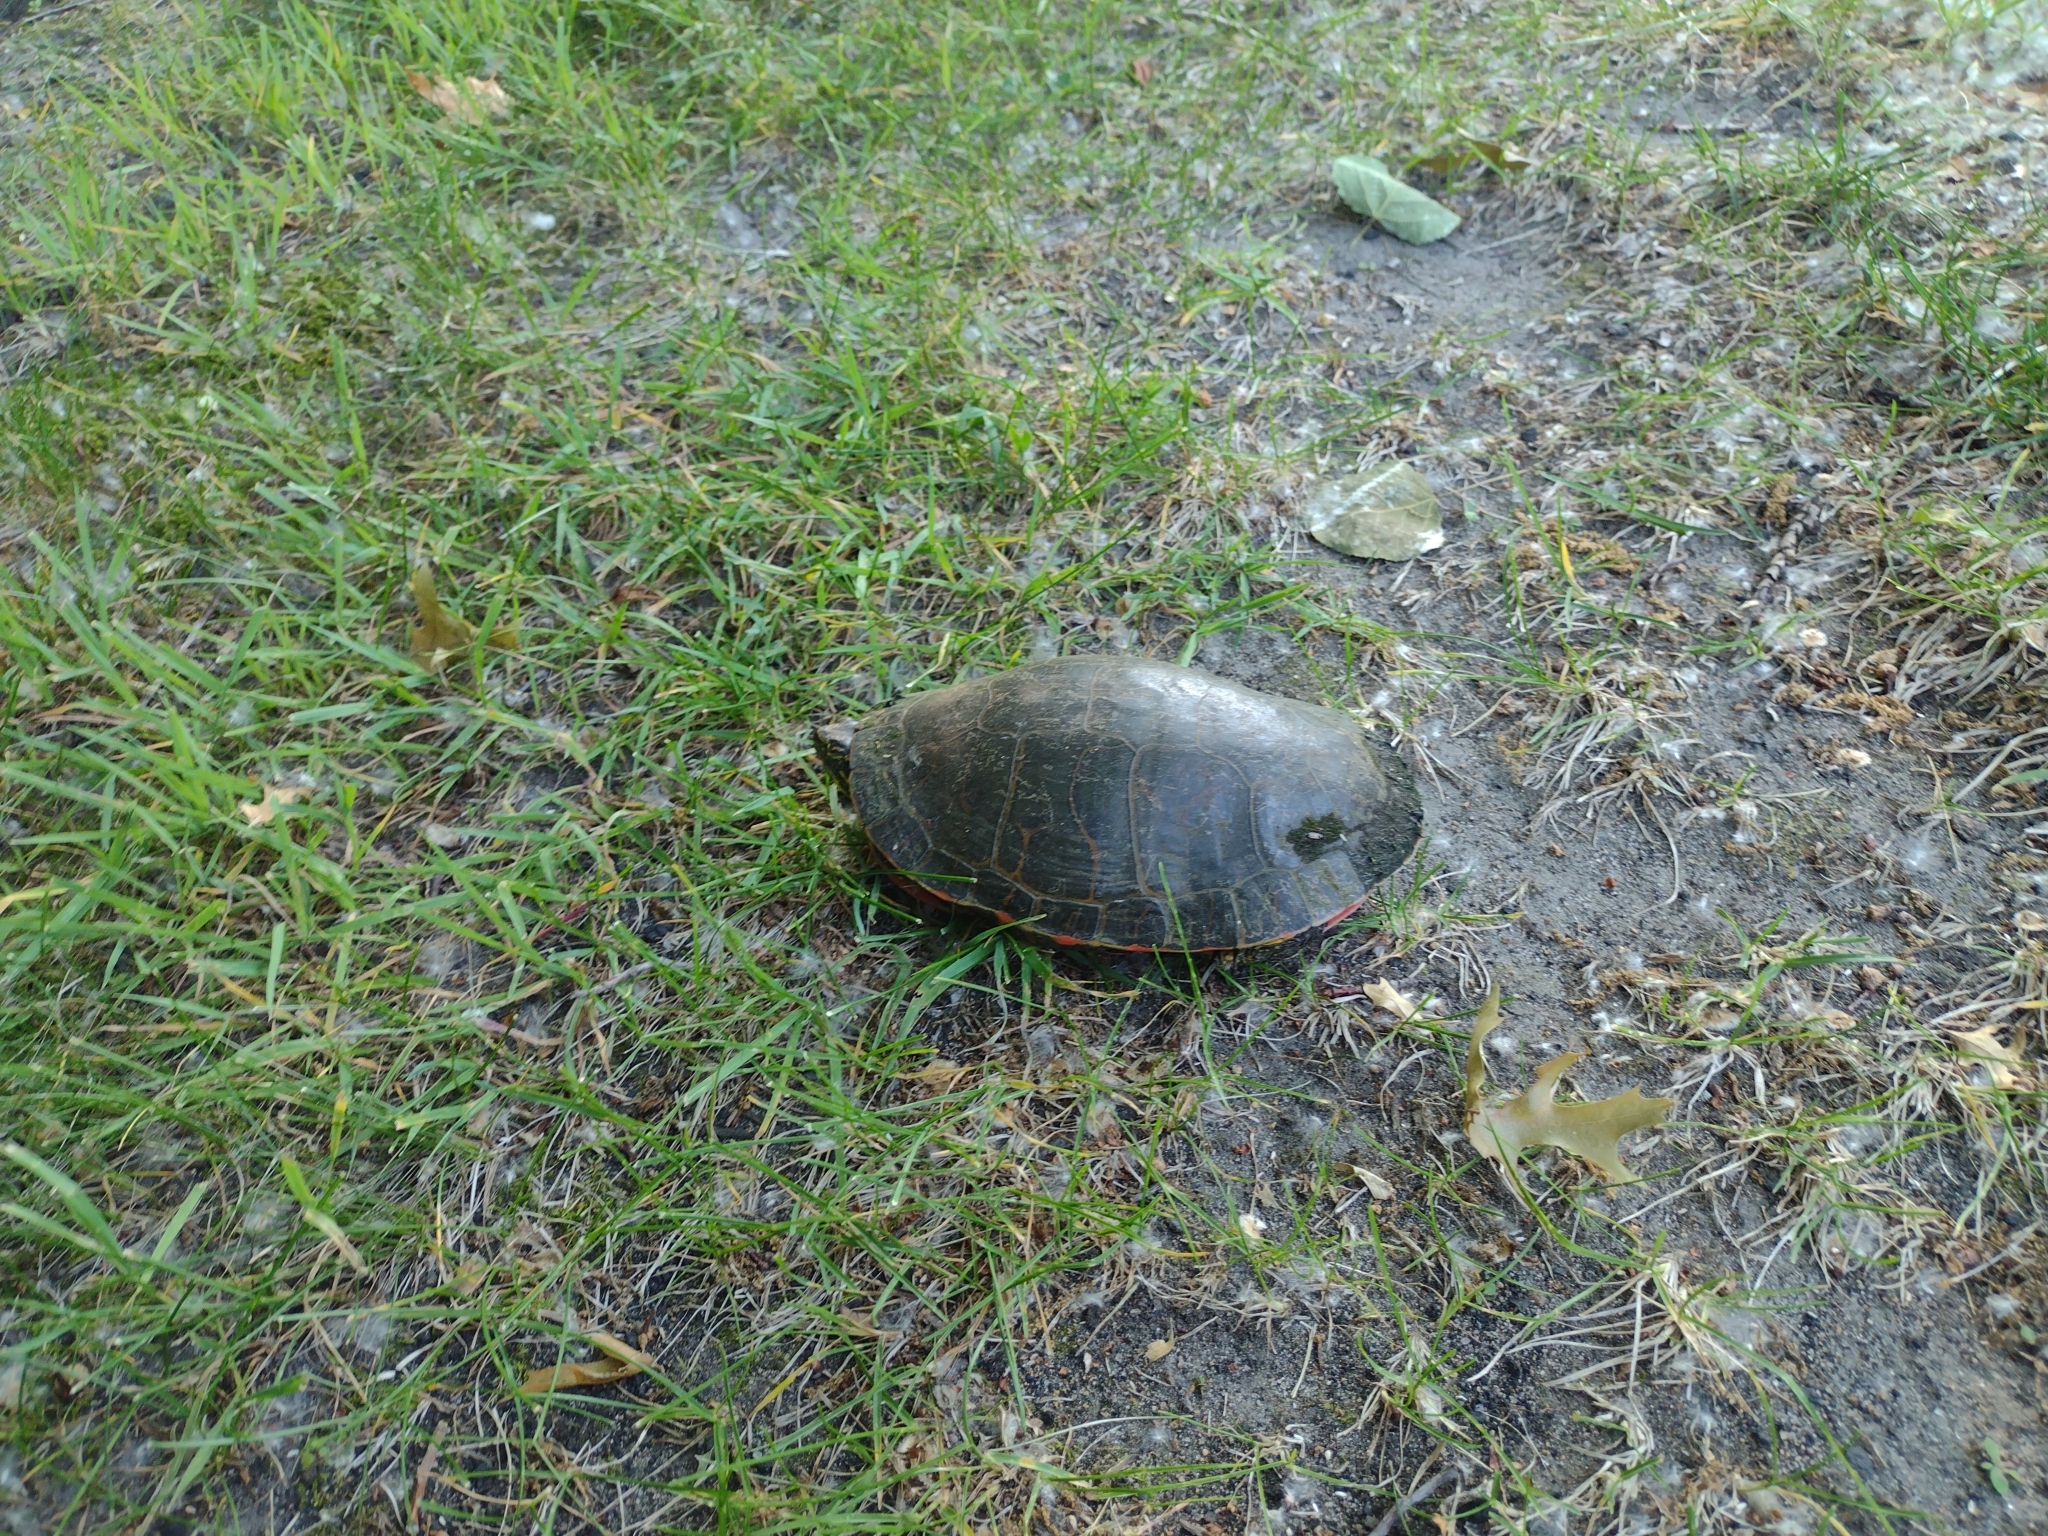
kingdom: Animalia
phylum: Chordata
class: Testudines
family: Emydidae
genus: Chrysemys
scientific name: Chrysemys picta
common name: Painted turtle
